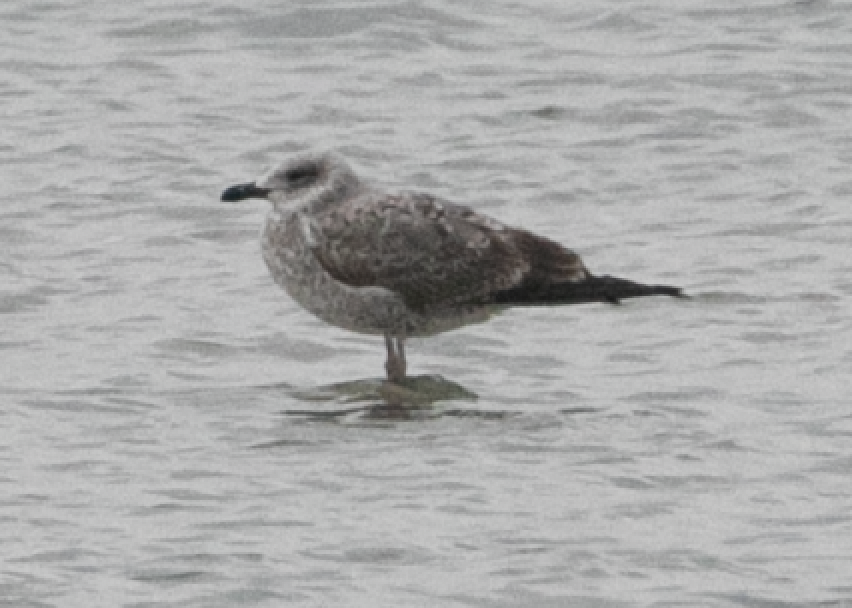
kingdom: Animalia
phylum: Chordata
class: Aves
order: Charadriiformes
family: Laridae
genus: Larus
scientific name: Larus michahellis
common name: Yellow-legged gull
